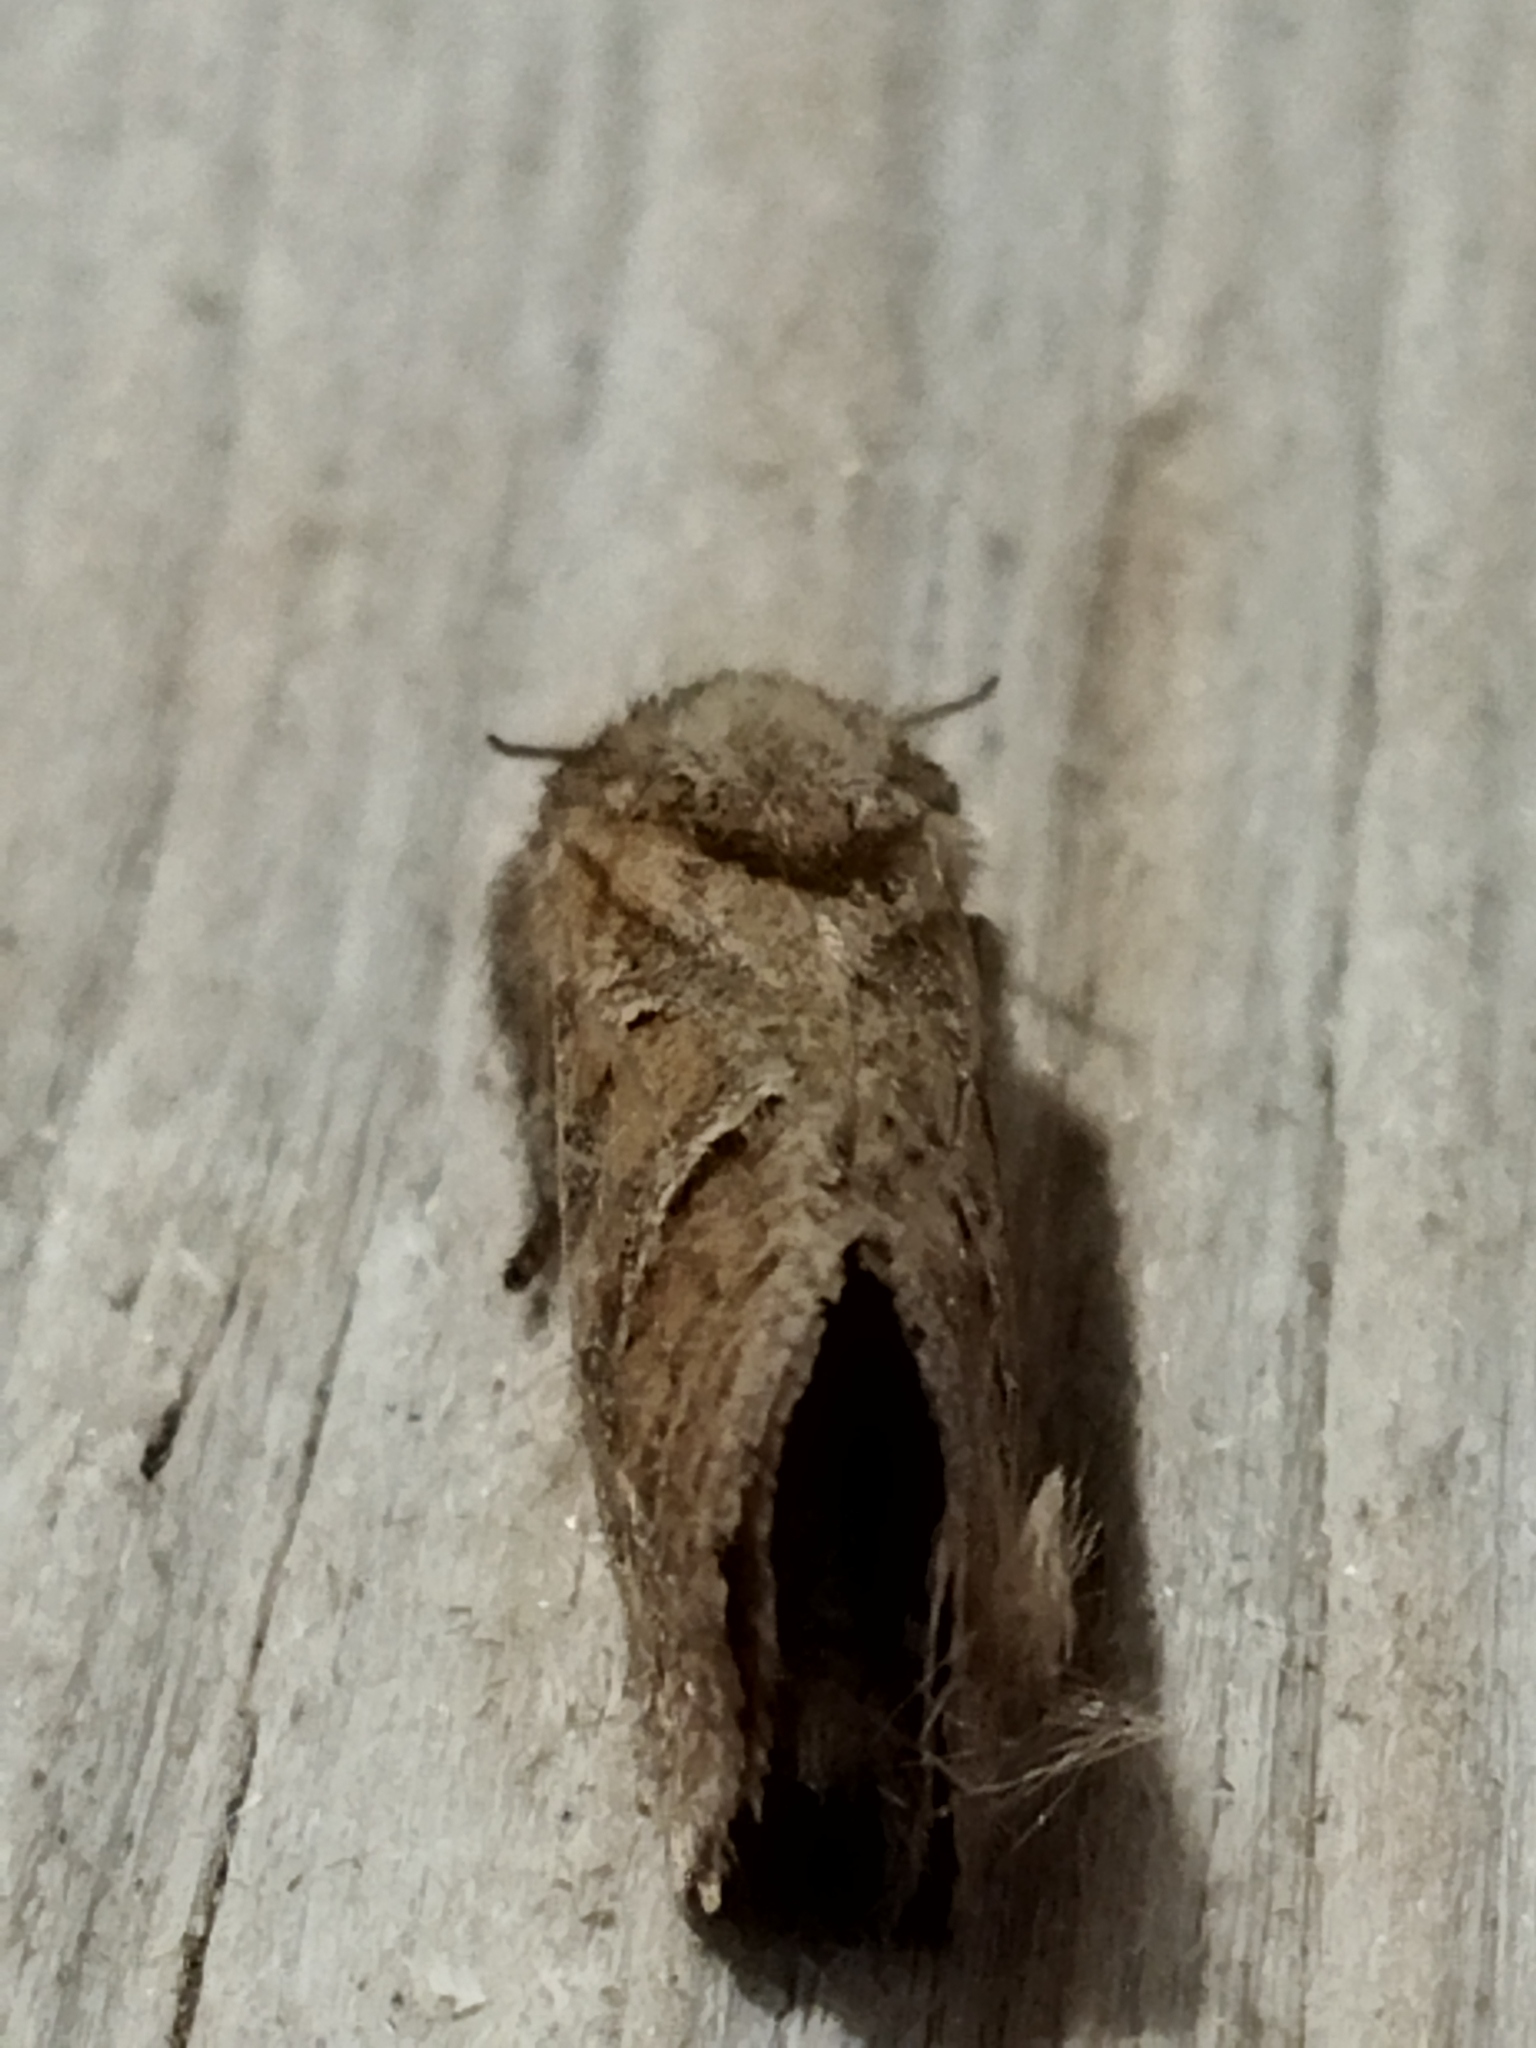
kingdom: Animalia
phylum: Arthropoda
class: Insecta
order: Lepidoptera
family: Hepialidae
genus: Triodia
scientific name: Triodia amasinus
